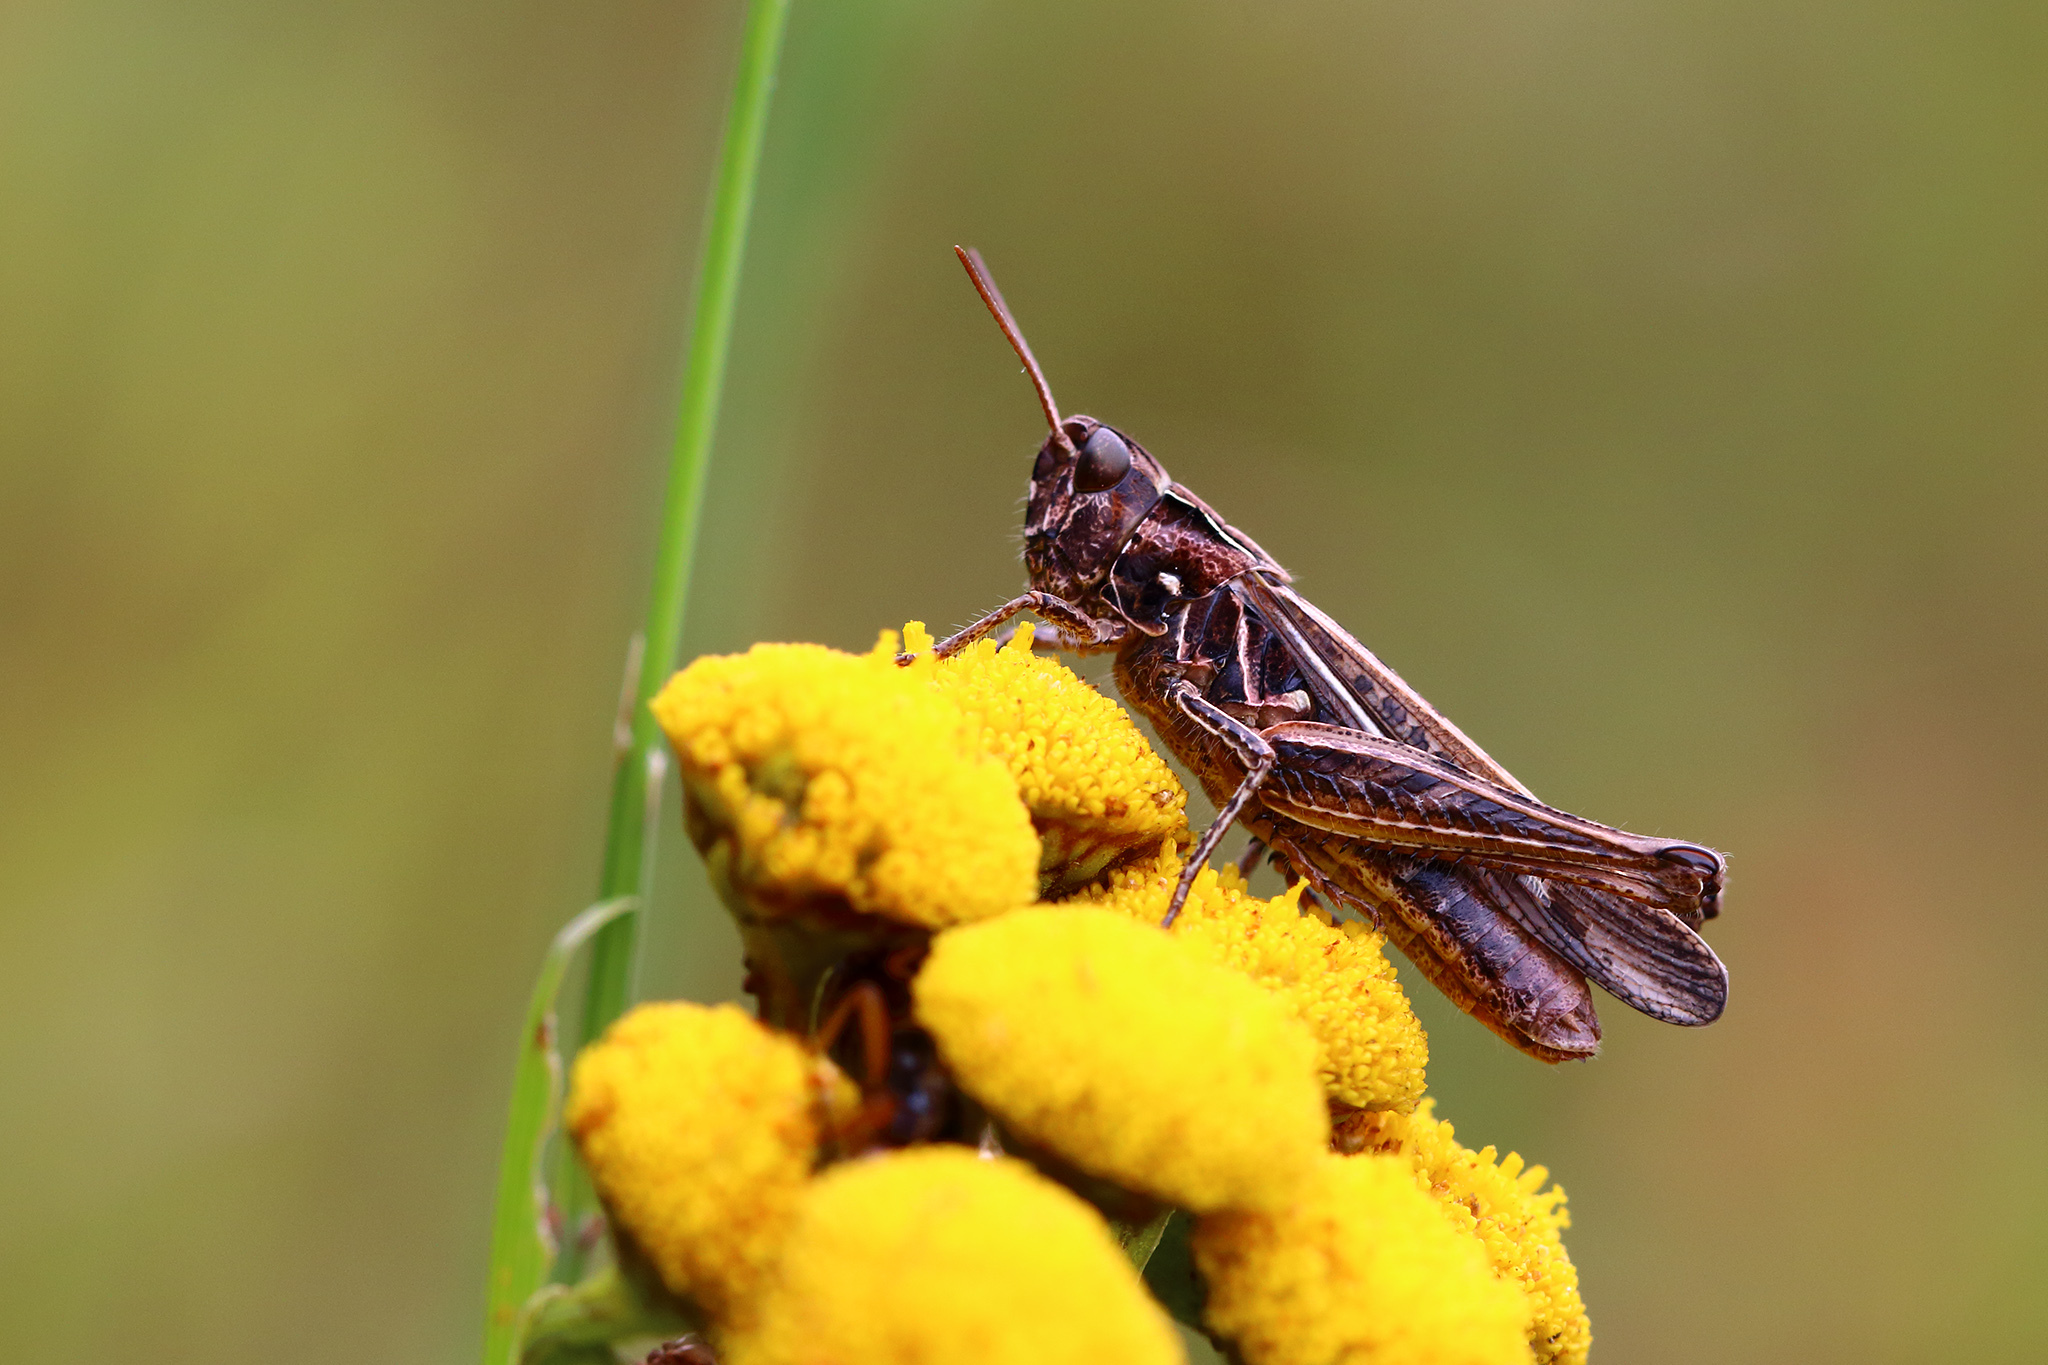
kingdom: Animalia
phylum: Arthropoda
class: Insecta
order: Orthoptera
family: Acrididae
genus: Chorthippus
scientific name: Chorthippus brunneus
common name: Field grasshopper
